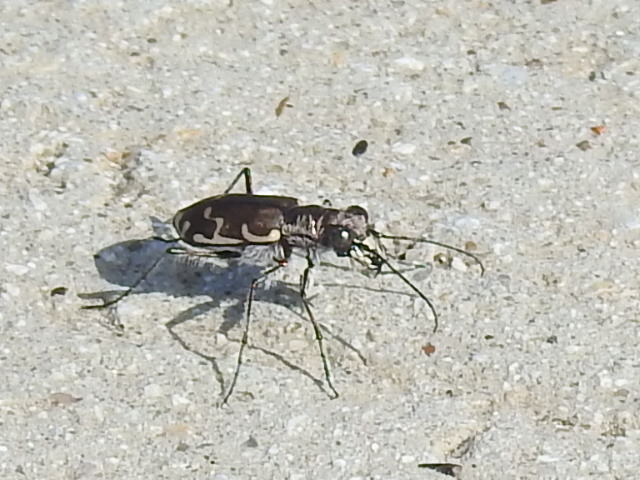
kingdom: Animalia
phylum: Arthropoda
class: Insecta
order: Coleoptera
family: Carabidae
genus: Cicindela
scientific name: Cicindela repanda
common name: Bronzed tiger beetle
